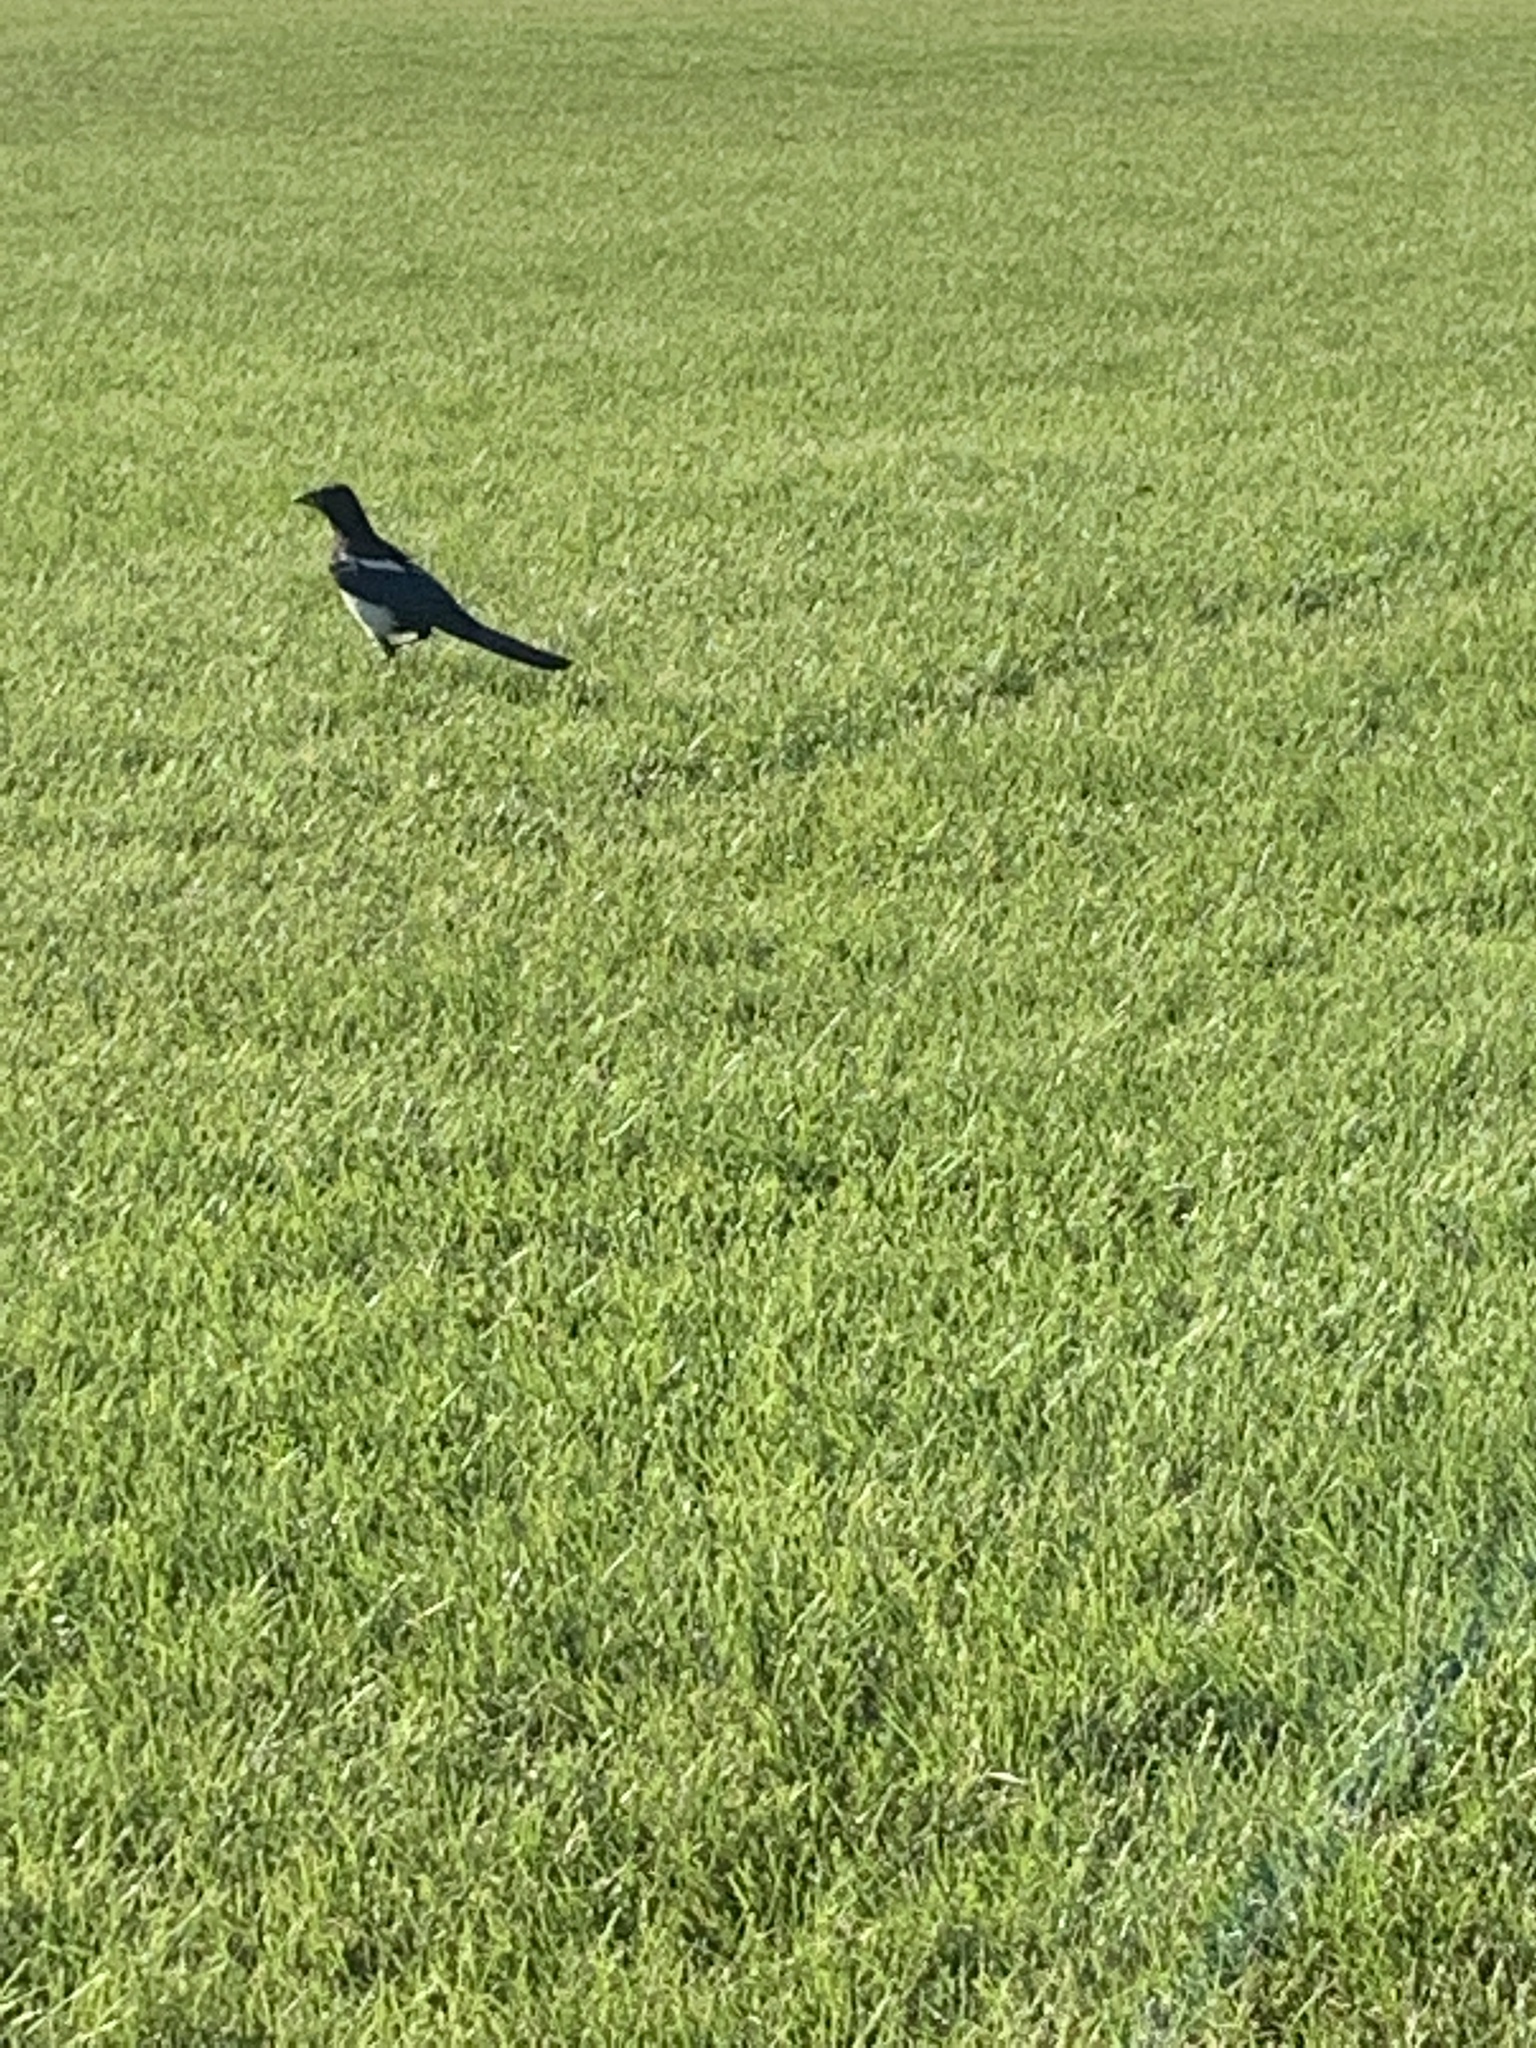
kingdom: Animalia
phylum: Chordata
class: Aves
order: Passeriformes
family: Corvidae
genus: Pica
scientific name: Pica hudsonia
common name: Black-billed magpie
